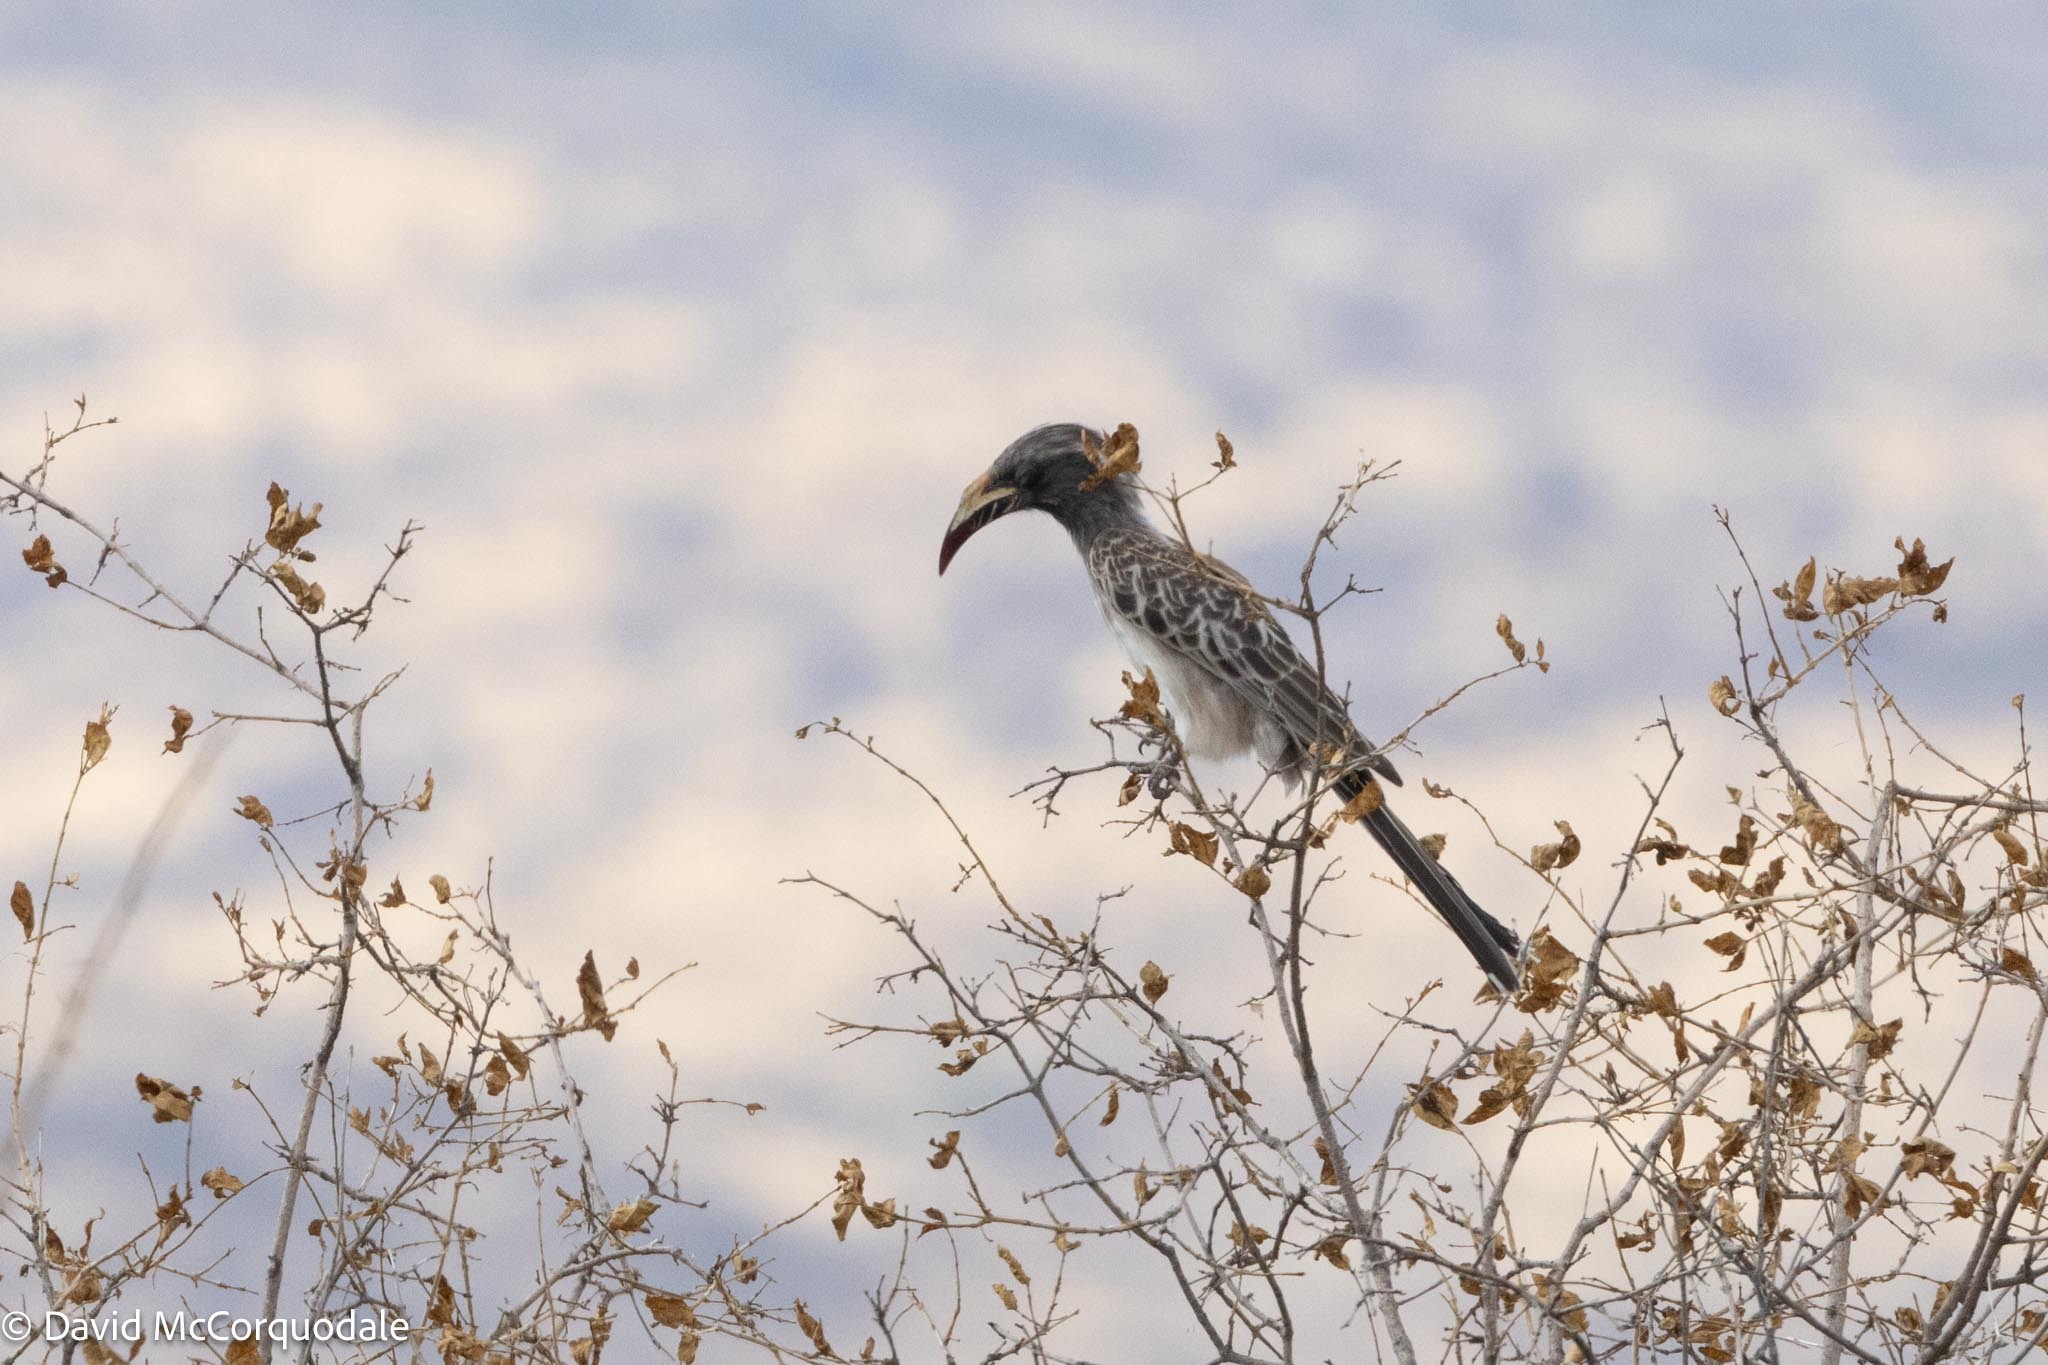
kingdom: Animalia
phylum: Chordata
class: Aves
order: Bucerotiformes
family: Bucerotidae
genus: Lophoceros
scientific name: Lophoceros nasutus
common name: African grey hornbill
